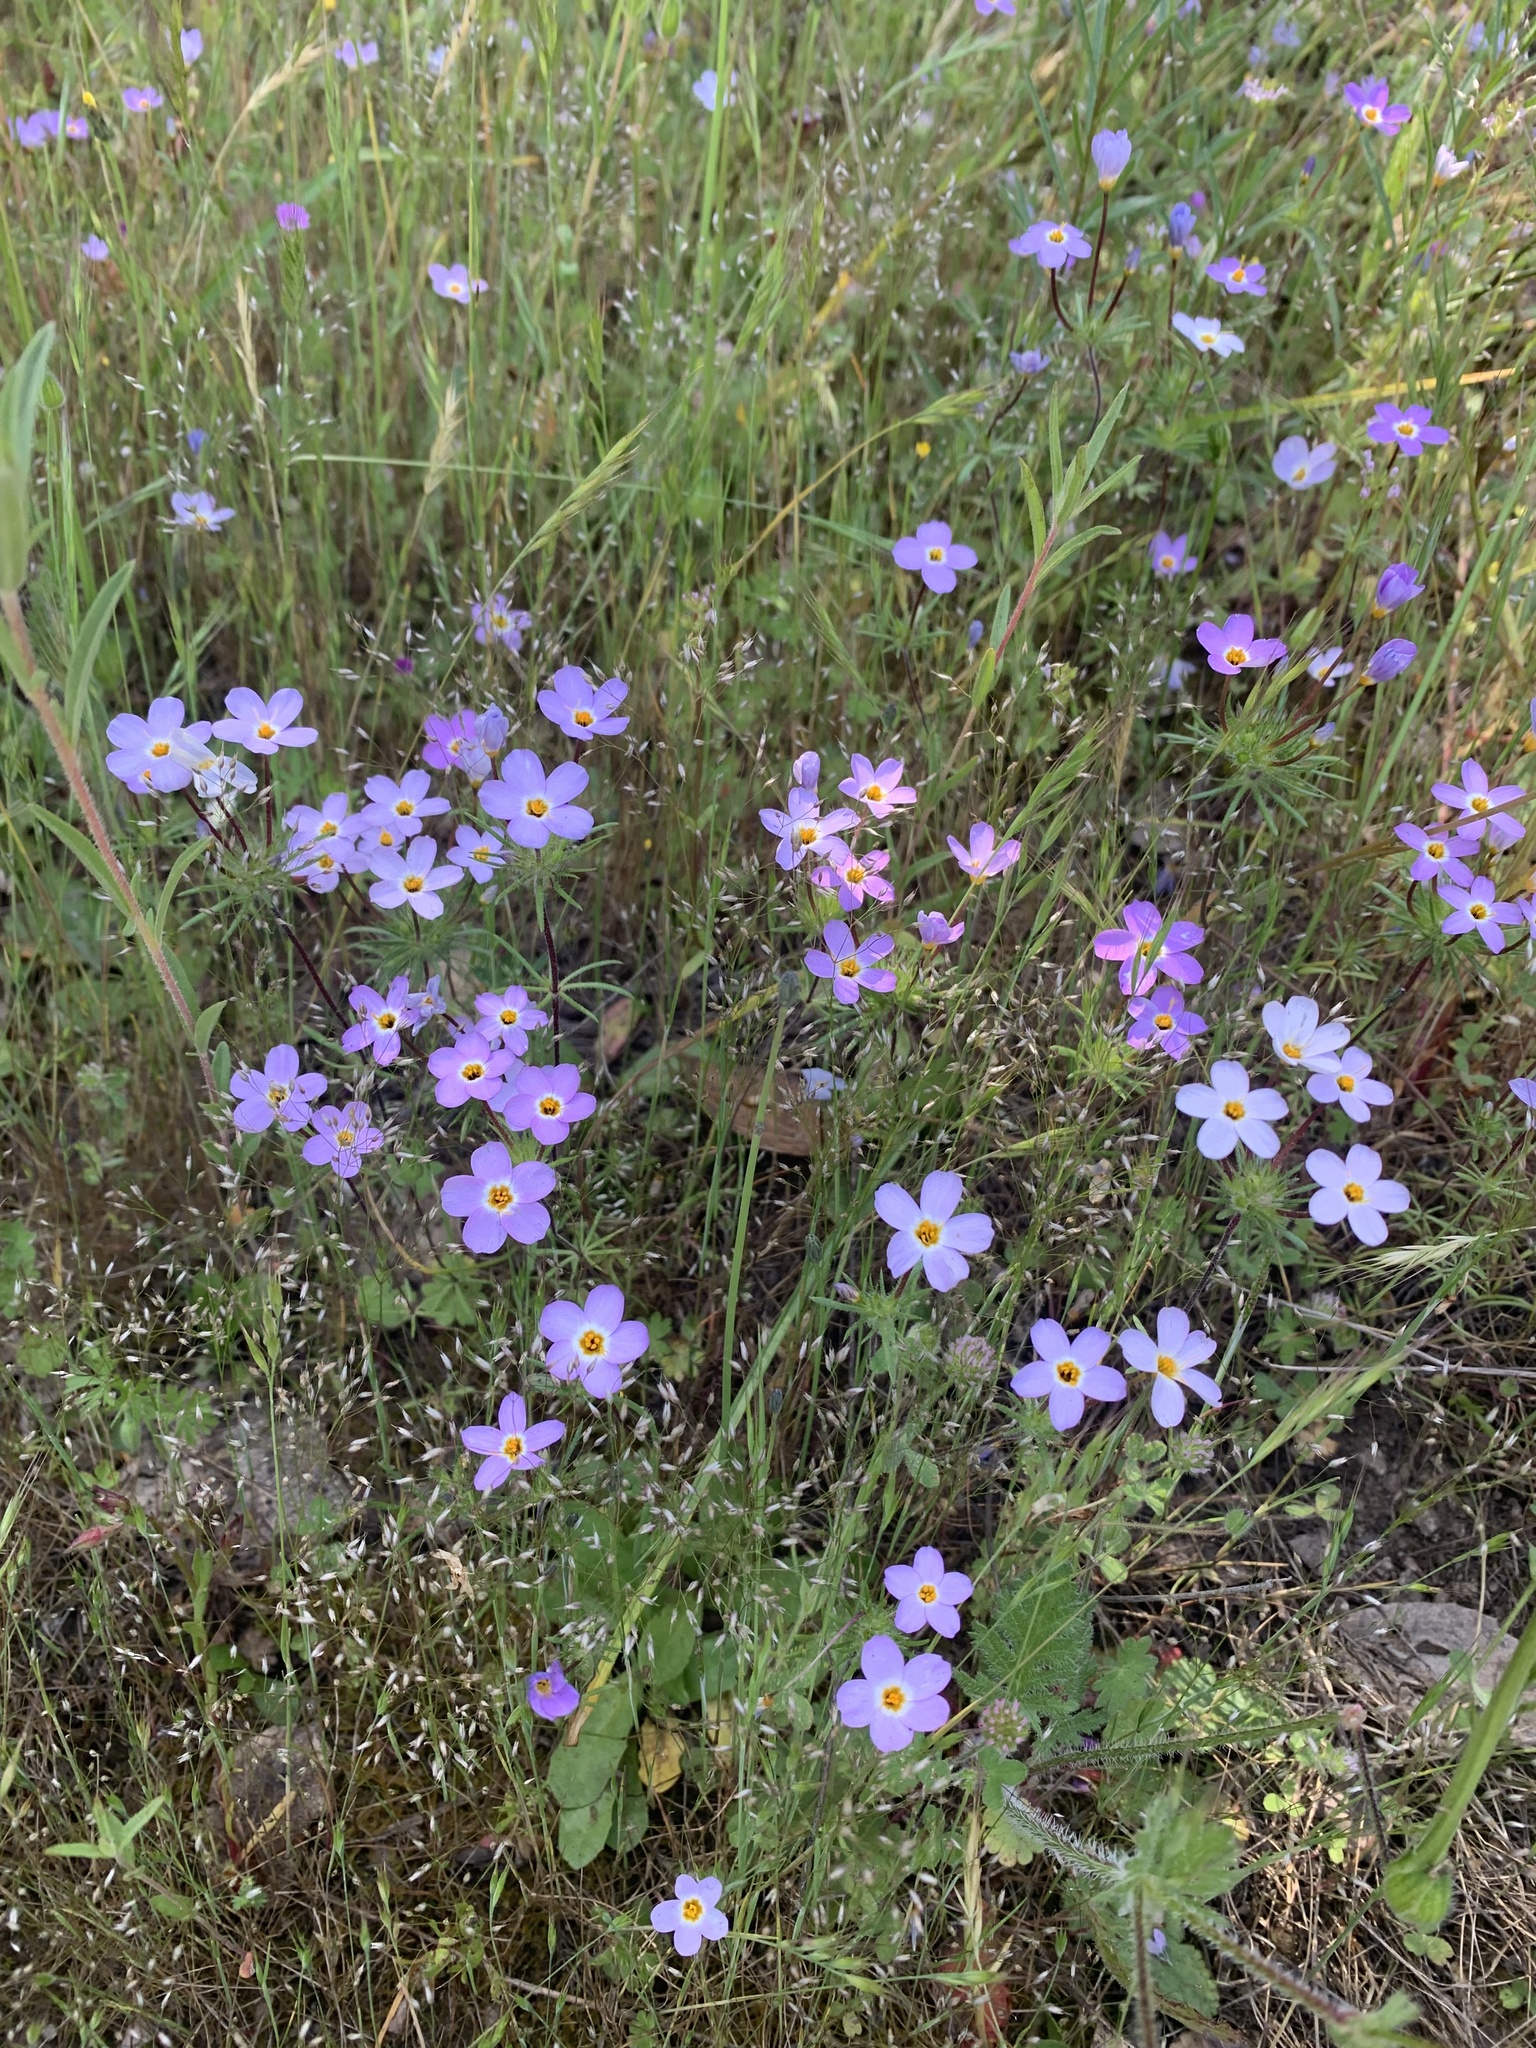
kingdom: Plantae
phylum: Tracheophyta
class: Magnoliopsida
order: Ericales
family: Polemoniaceae
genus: Leptosiphon
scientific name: Leptosiphon androsaceus
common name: False babystars
